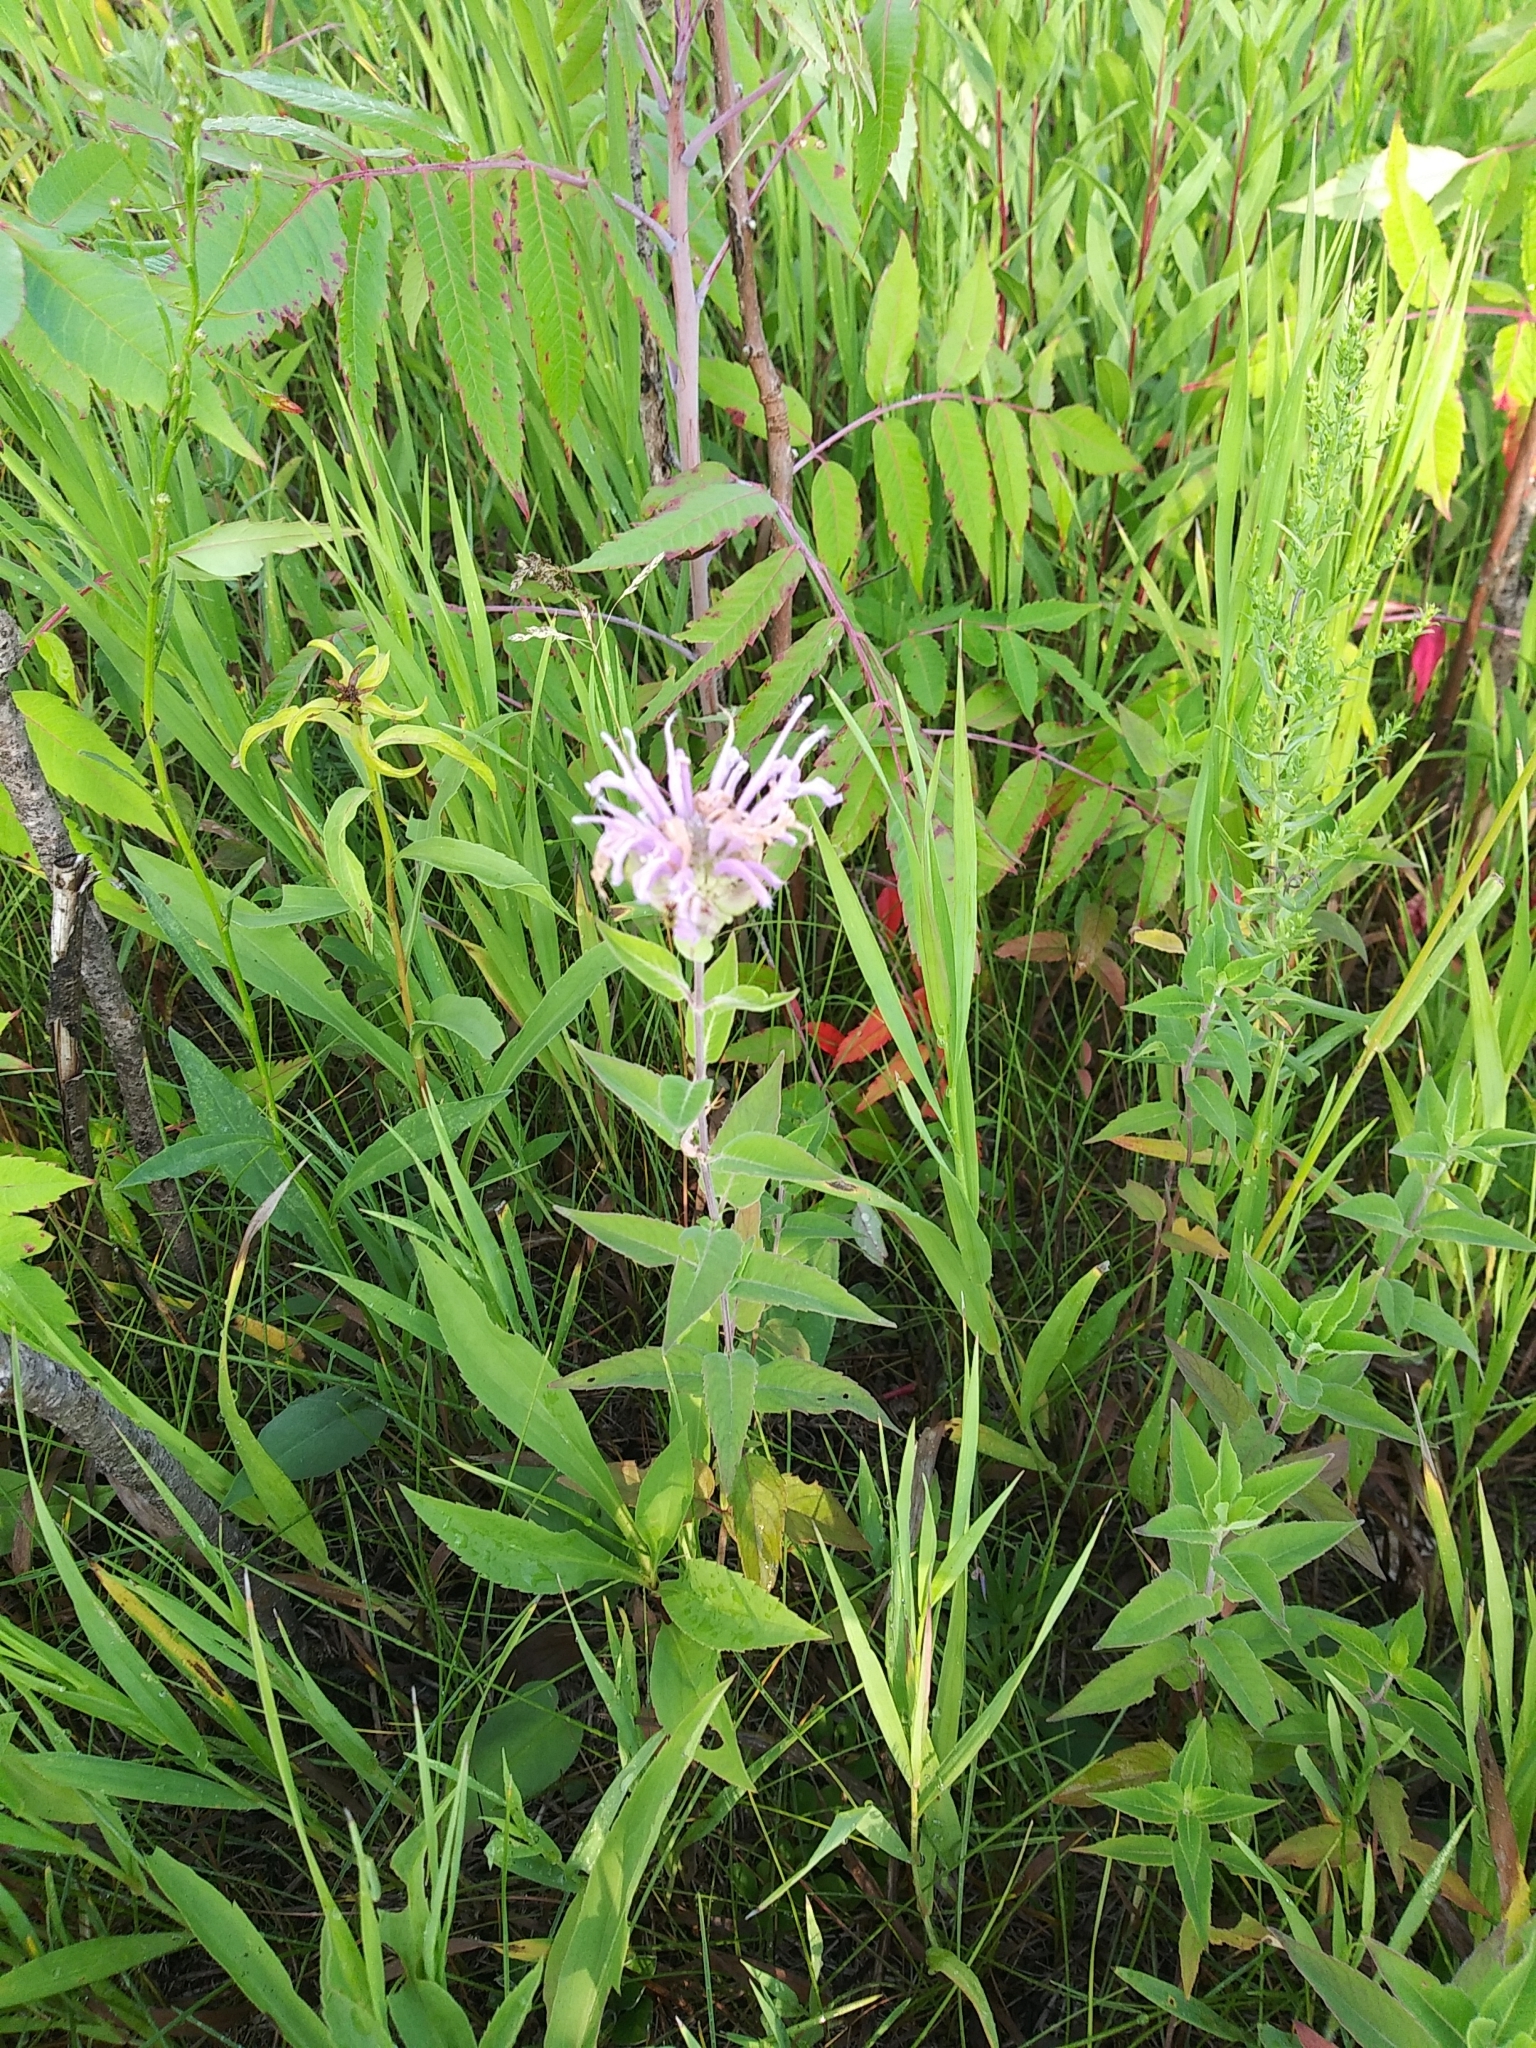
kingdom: Plantae
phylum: Tracheophyta
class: Magnoliopsida
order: Lamiales
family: Lamiaceae
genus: Monarda
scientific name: Monarda fistulosa
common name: Purple beebalm
